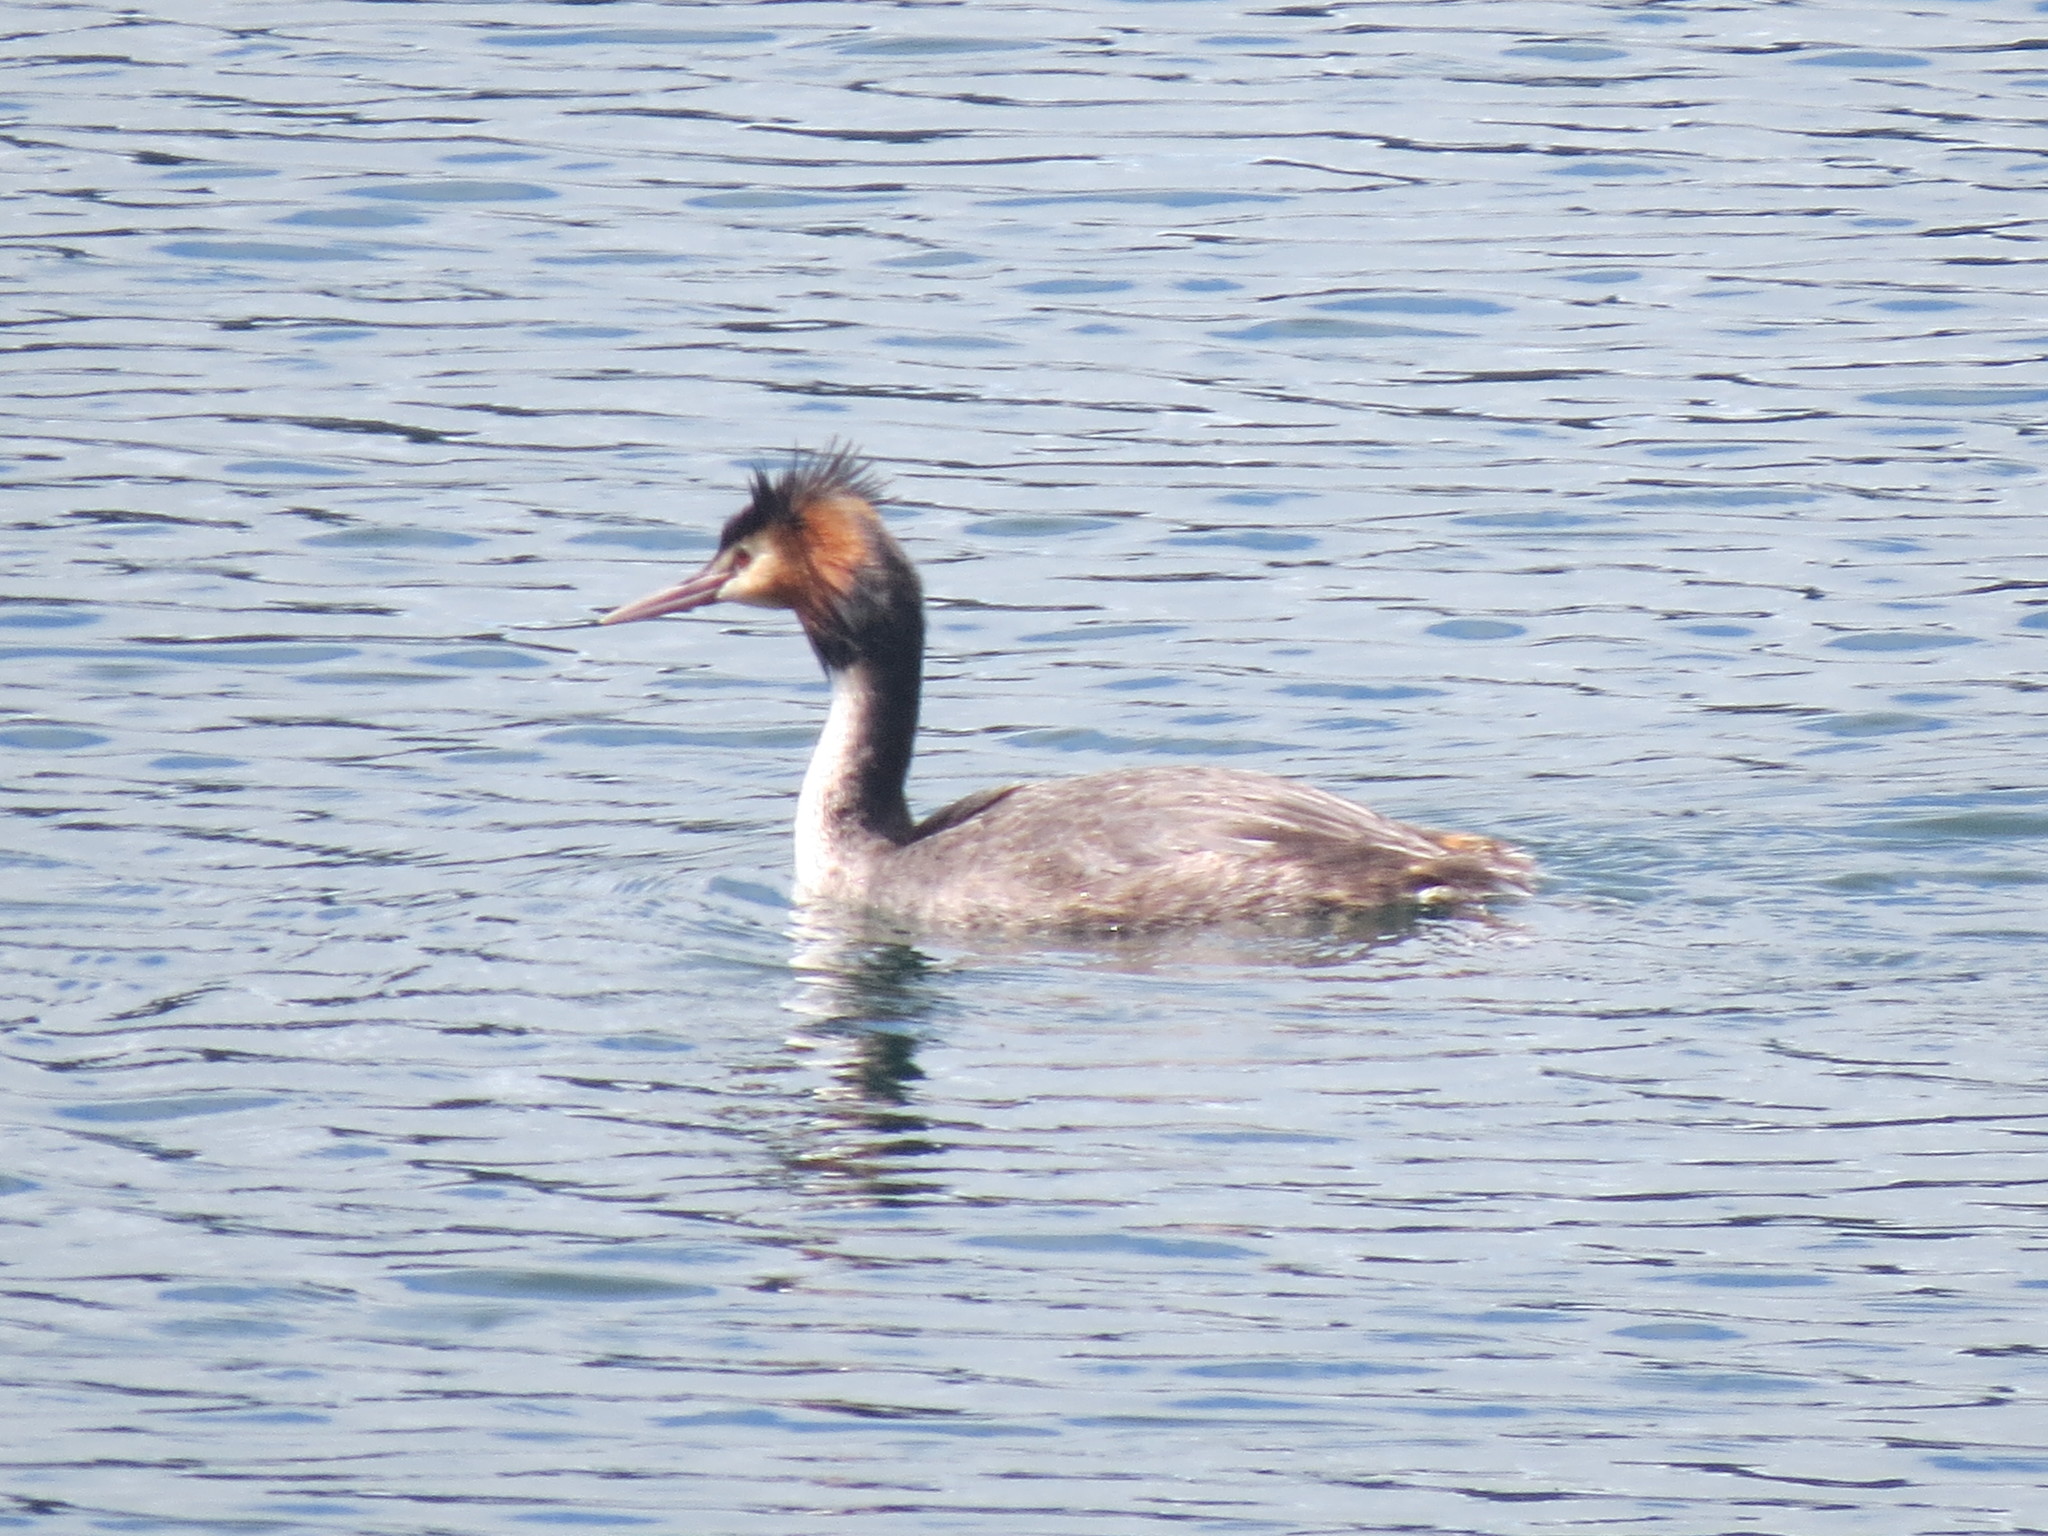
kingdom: Animalia
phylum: Chordata
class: Aves
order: Podicipediformes
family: Podicipedidae
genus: Podiceps
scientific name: Podiceps cristatus
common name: Great crested grebe
